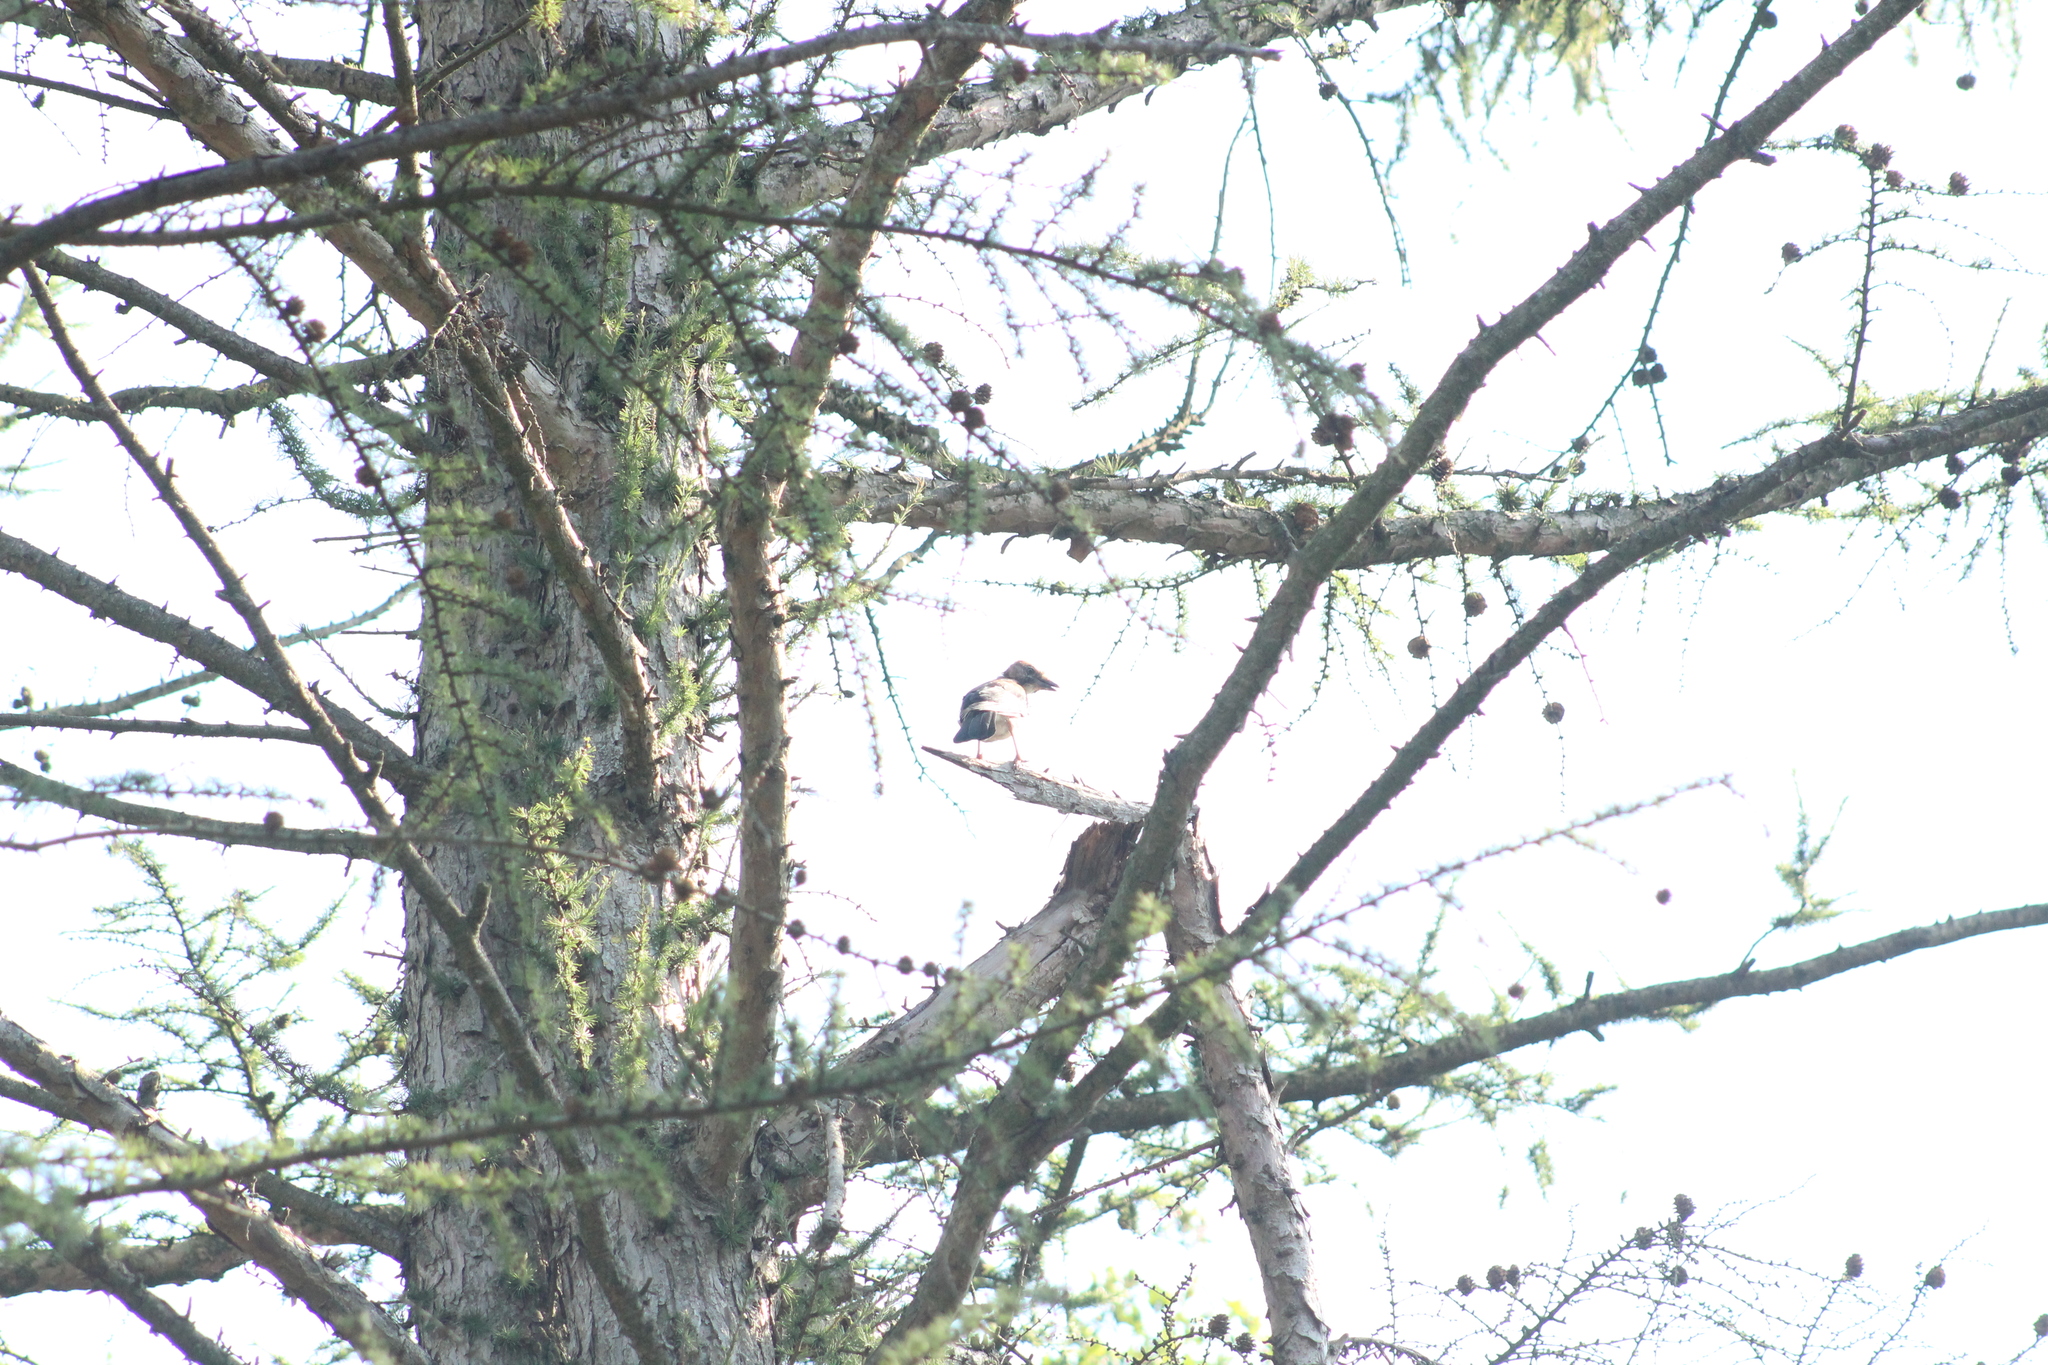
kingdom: Animalia
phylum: Chordata
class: Aves
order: Passeriformes
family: Corvidae
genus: Garrulus
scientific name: Garrulus glandarius
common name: Eurasian jay
